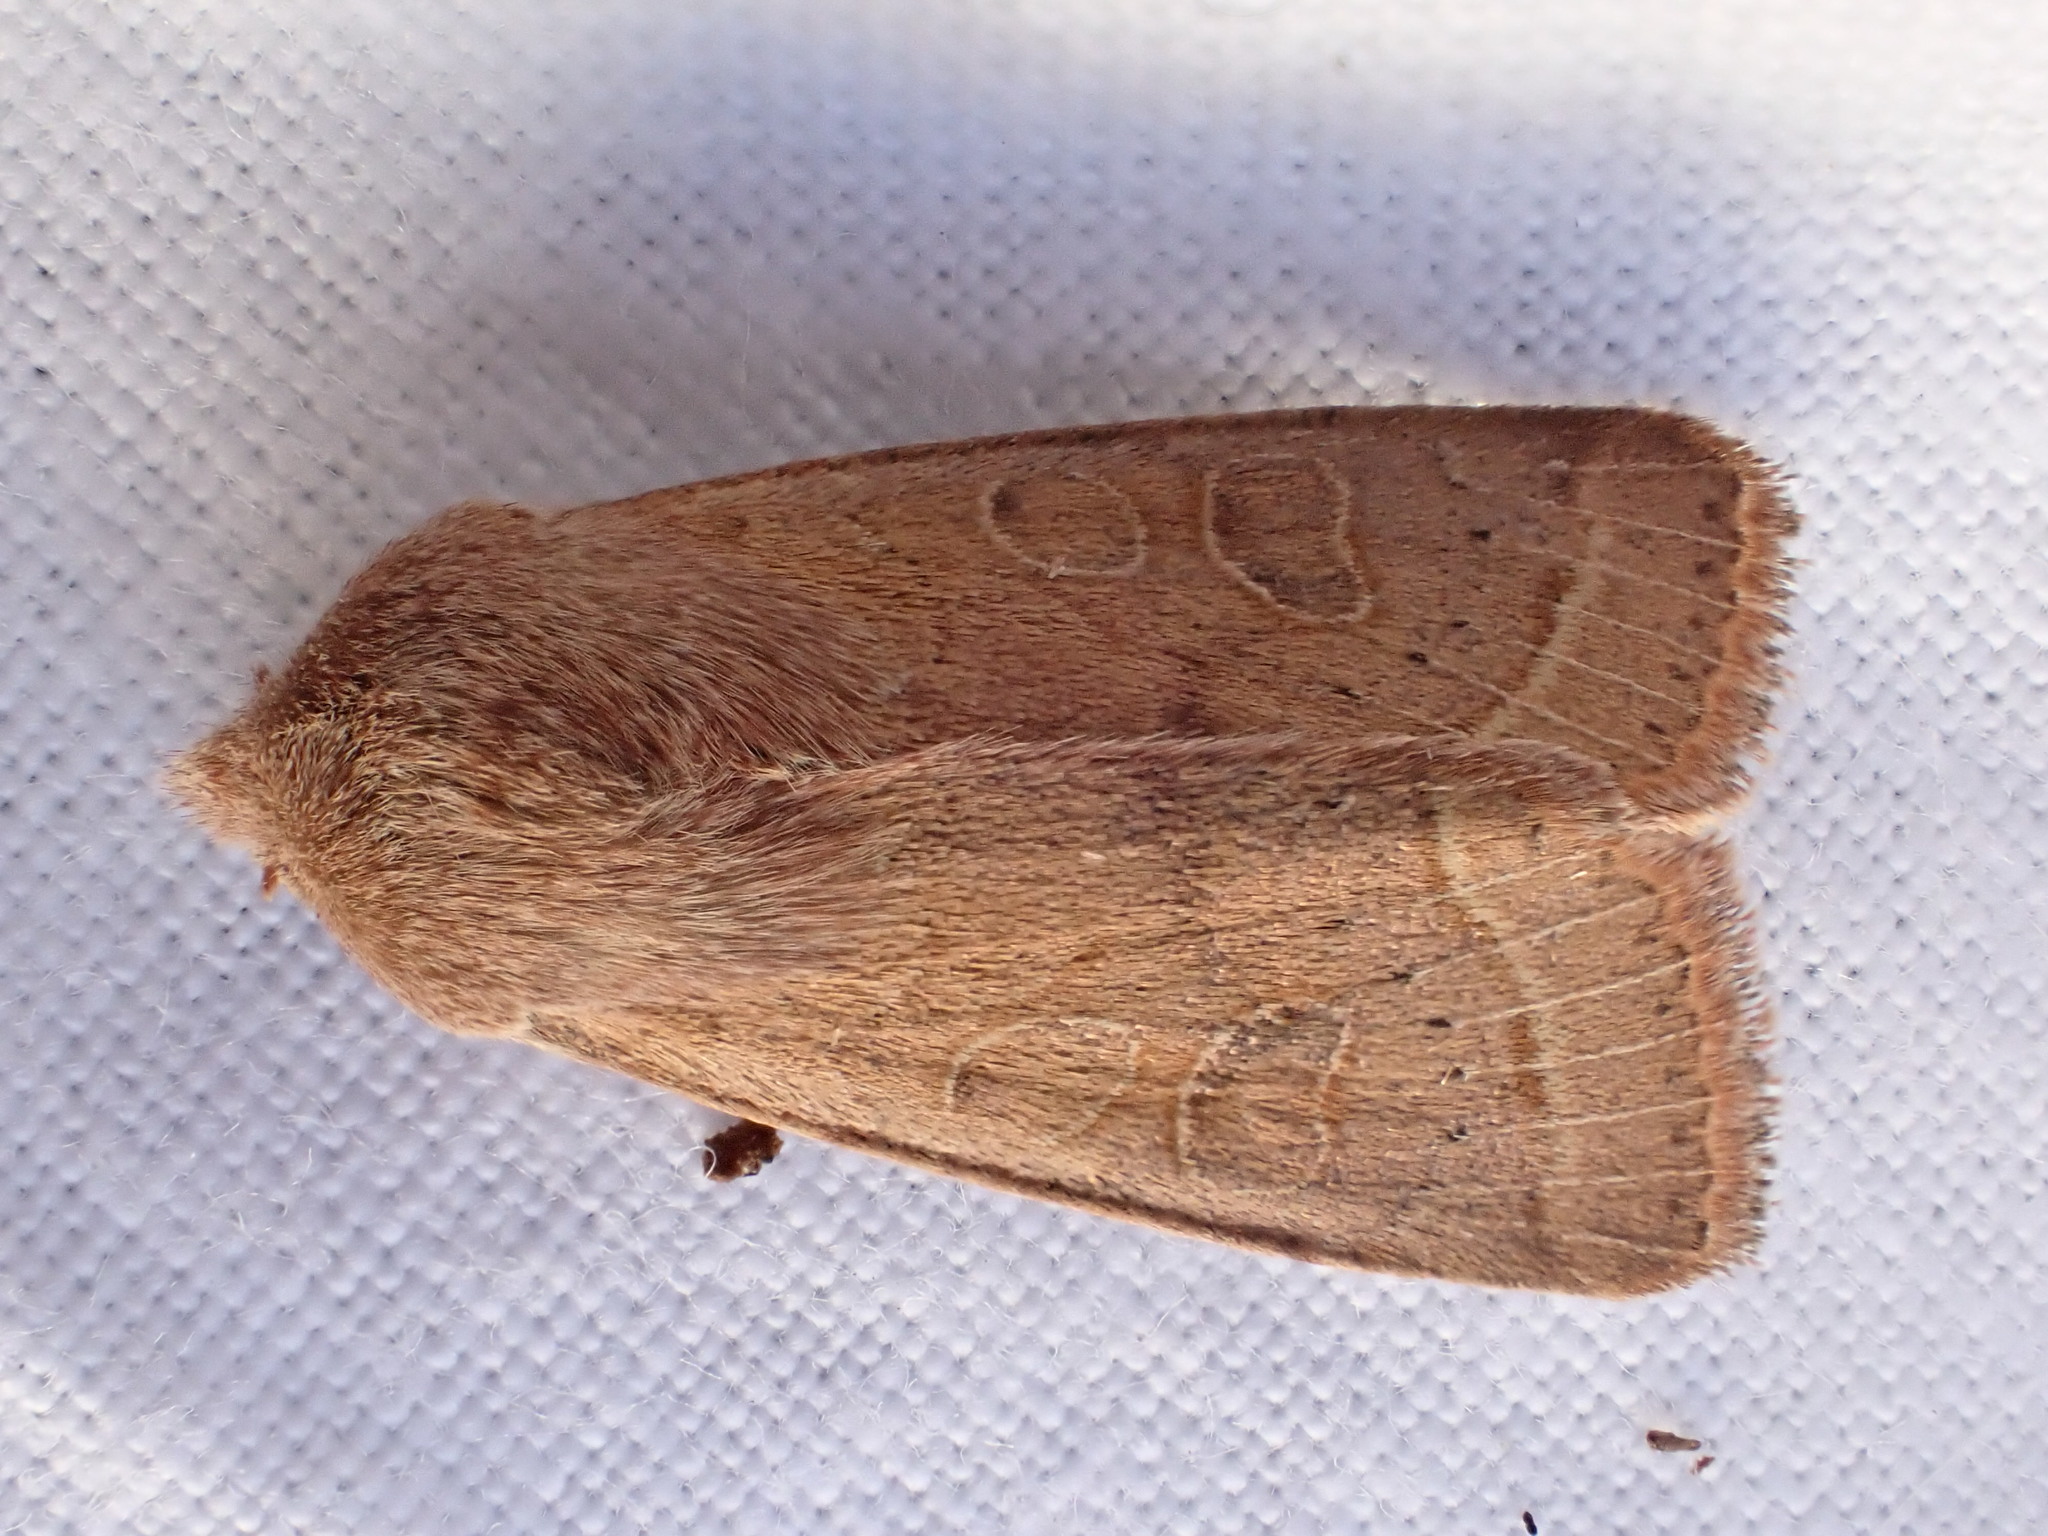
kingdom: Animalia
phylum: Arthropoda
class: Insecta
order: Lepidoptera
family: Noctuidae
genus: Orthosia
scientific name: Orthosia cerasi
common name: Common quaker
